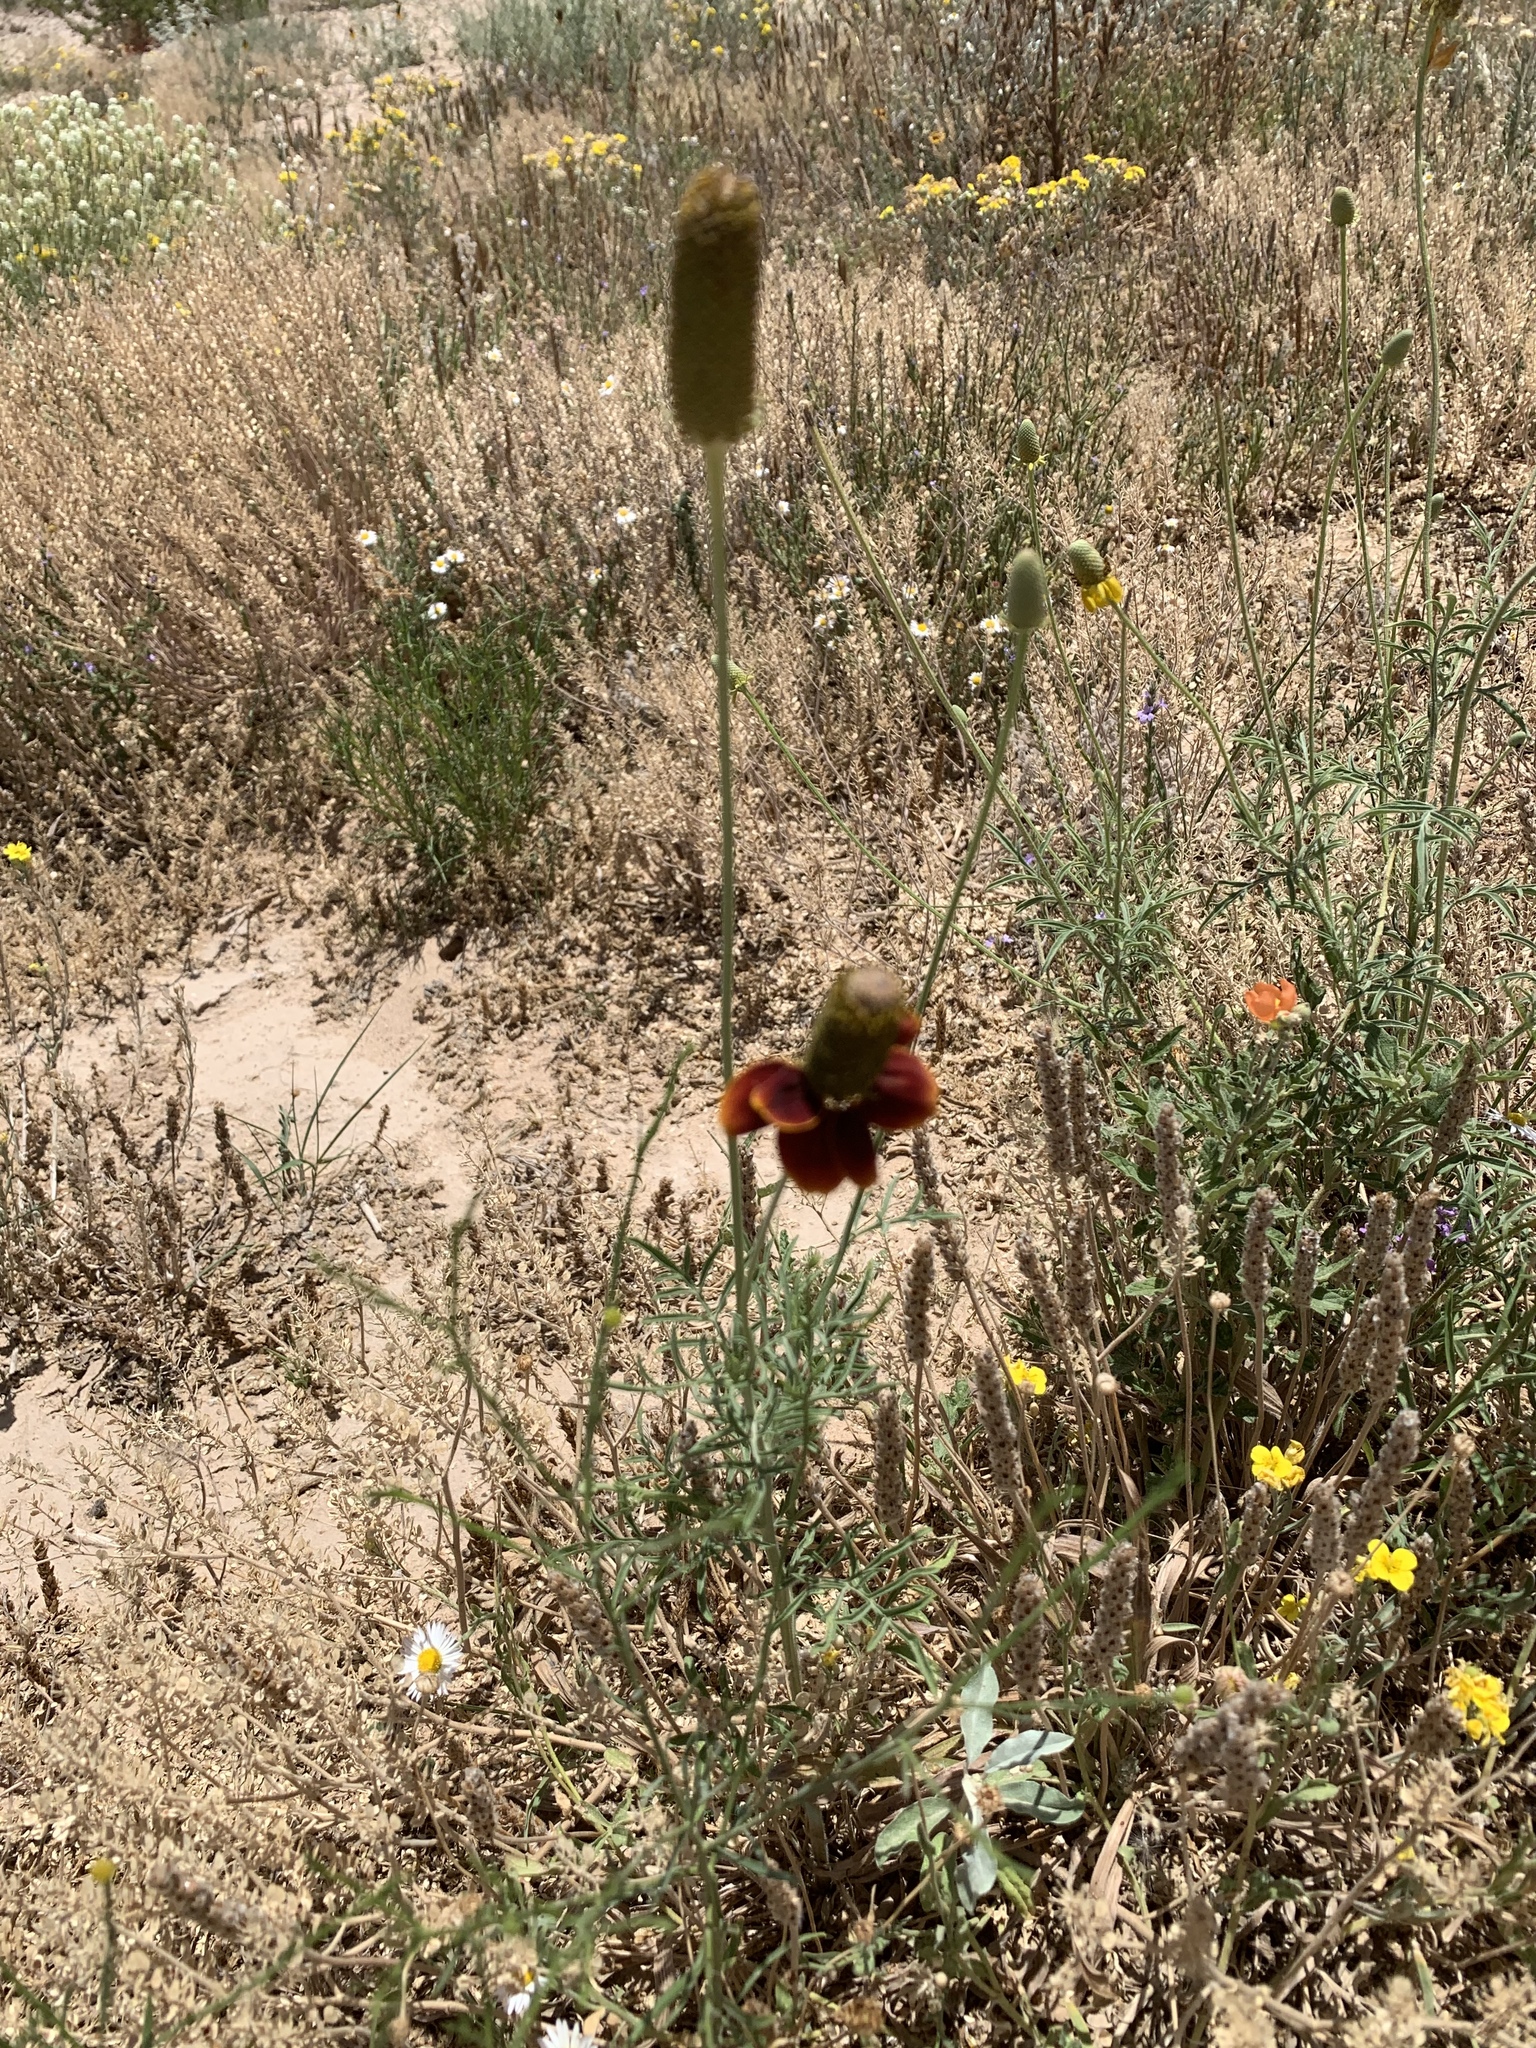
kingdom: Plantae
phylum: Tracheophyta
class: Magnoliopsida
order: Asterales
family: Asteraceae
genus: Ratibida
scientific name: Ratibida columnifera
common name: Prairie coneflower
